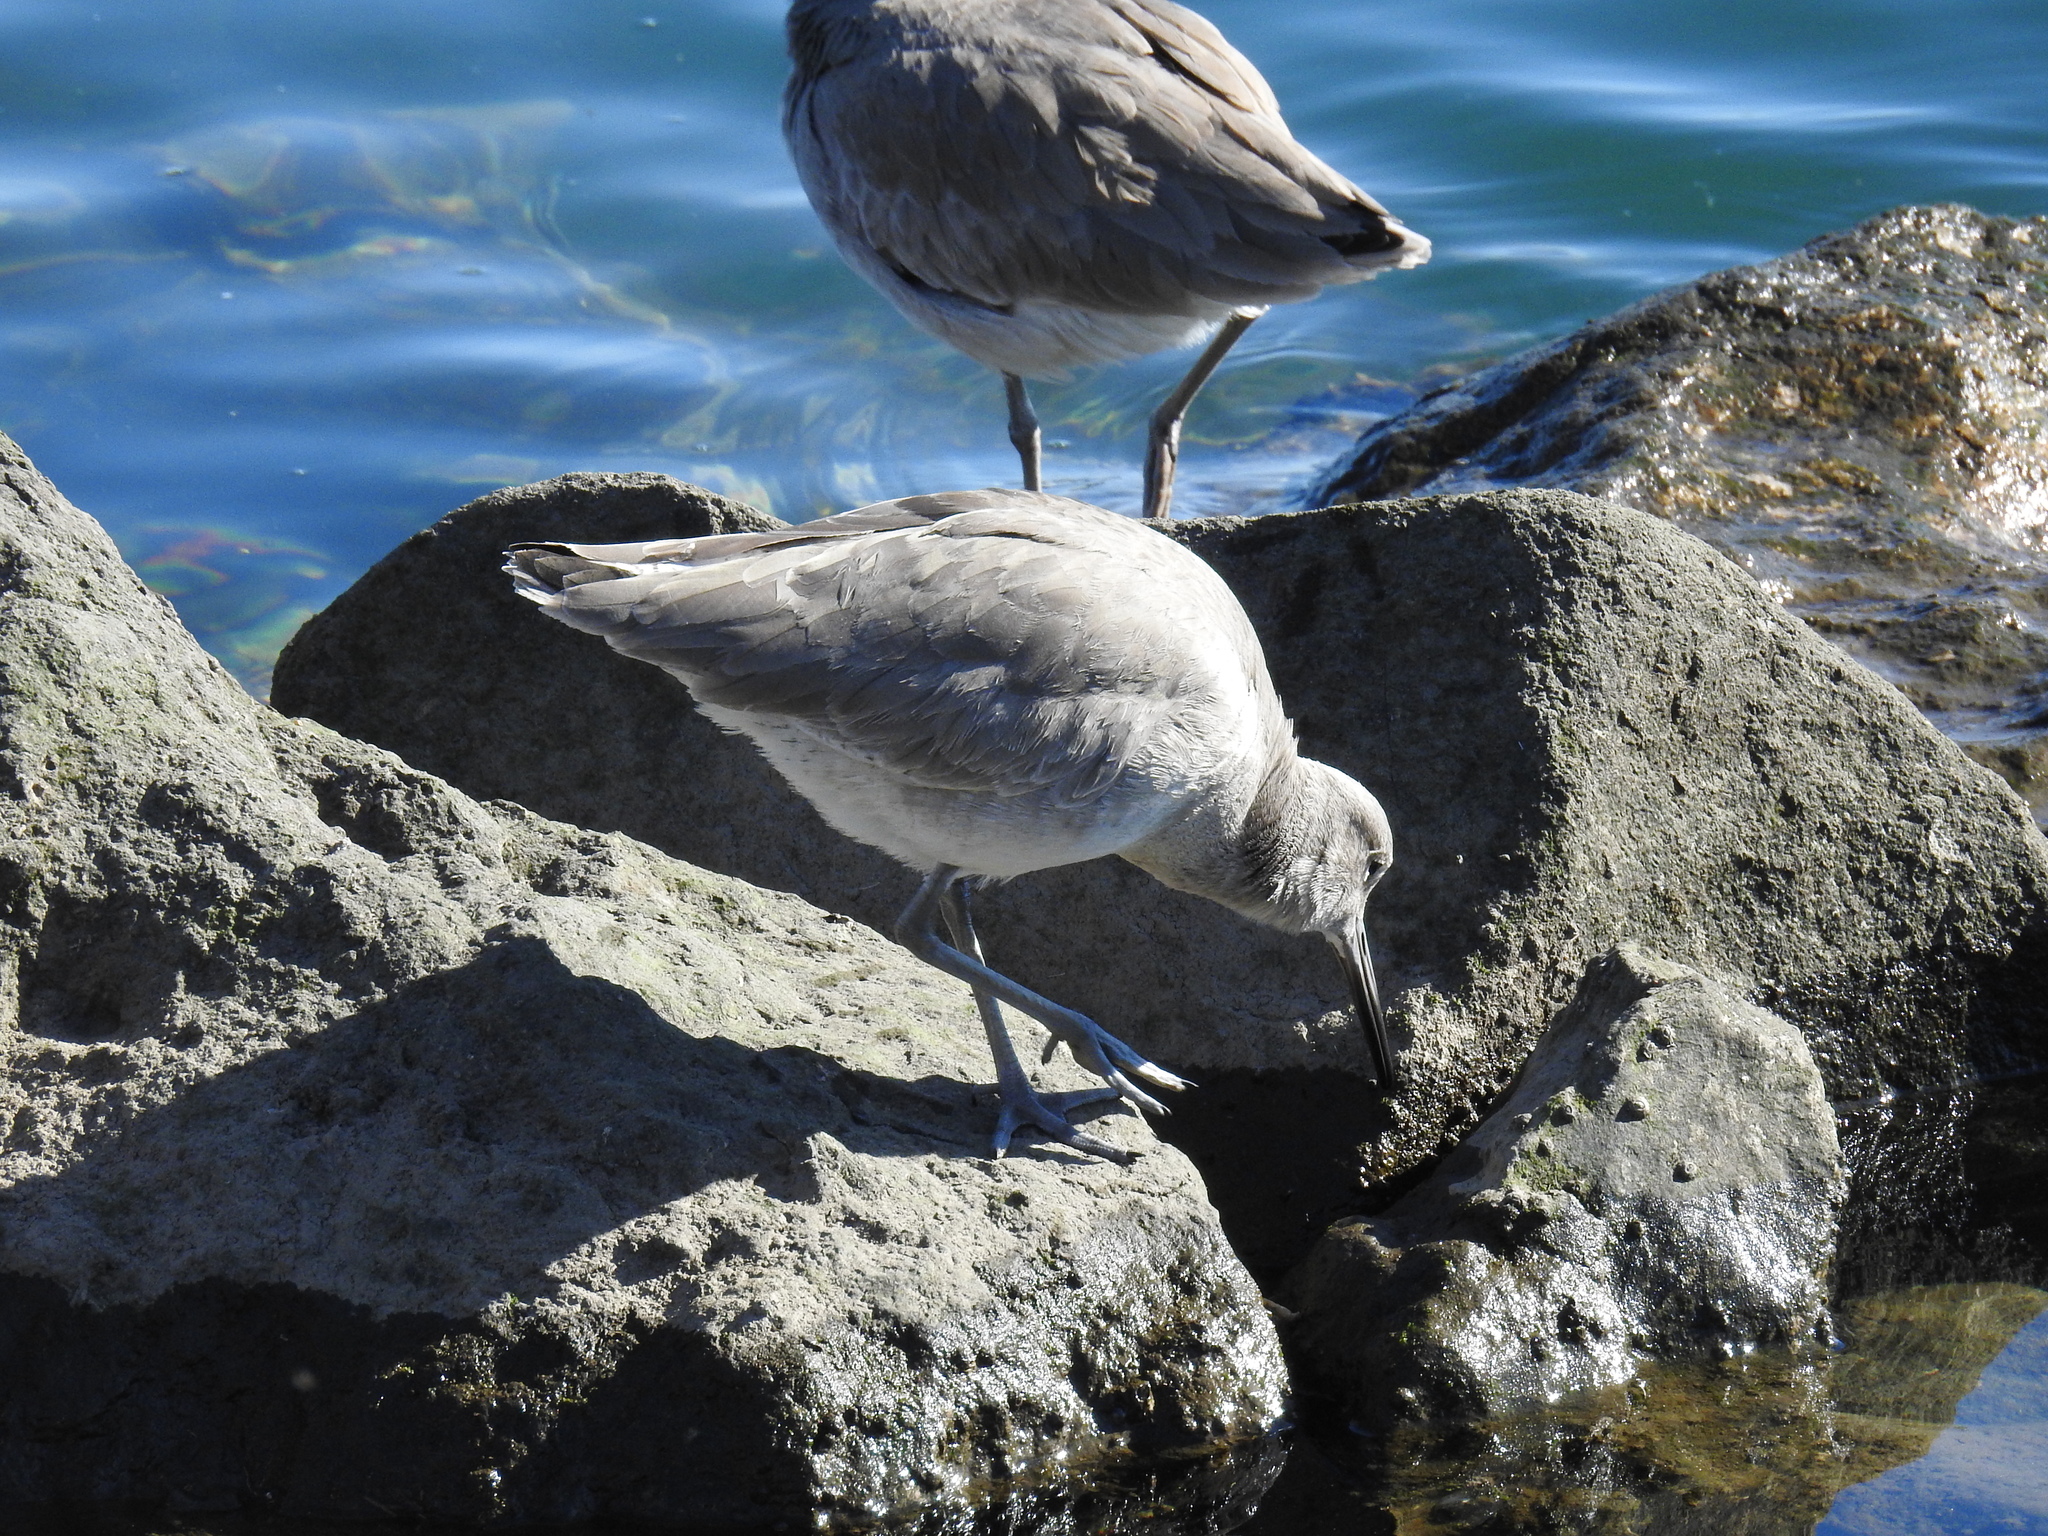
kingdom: Animalia
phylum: Chordata
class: Aves
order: Charadriiformes
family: Scolopacidae
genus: Tringa
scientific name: Tringa semipalmata
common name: Willet
